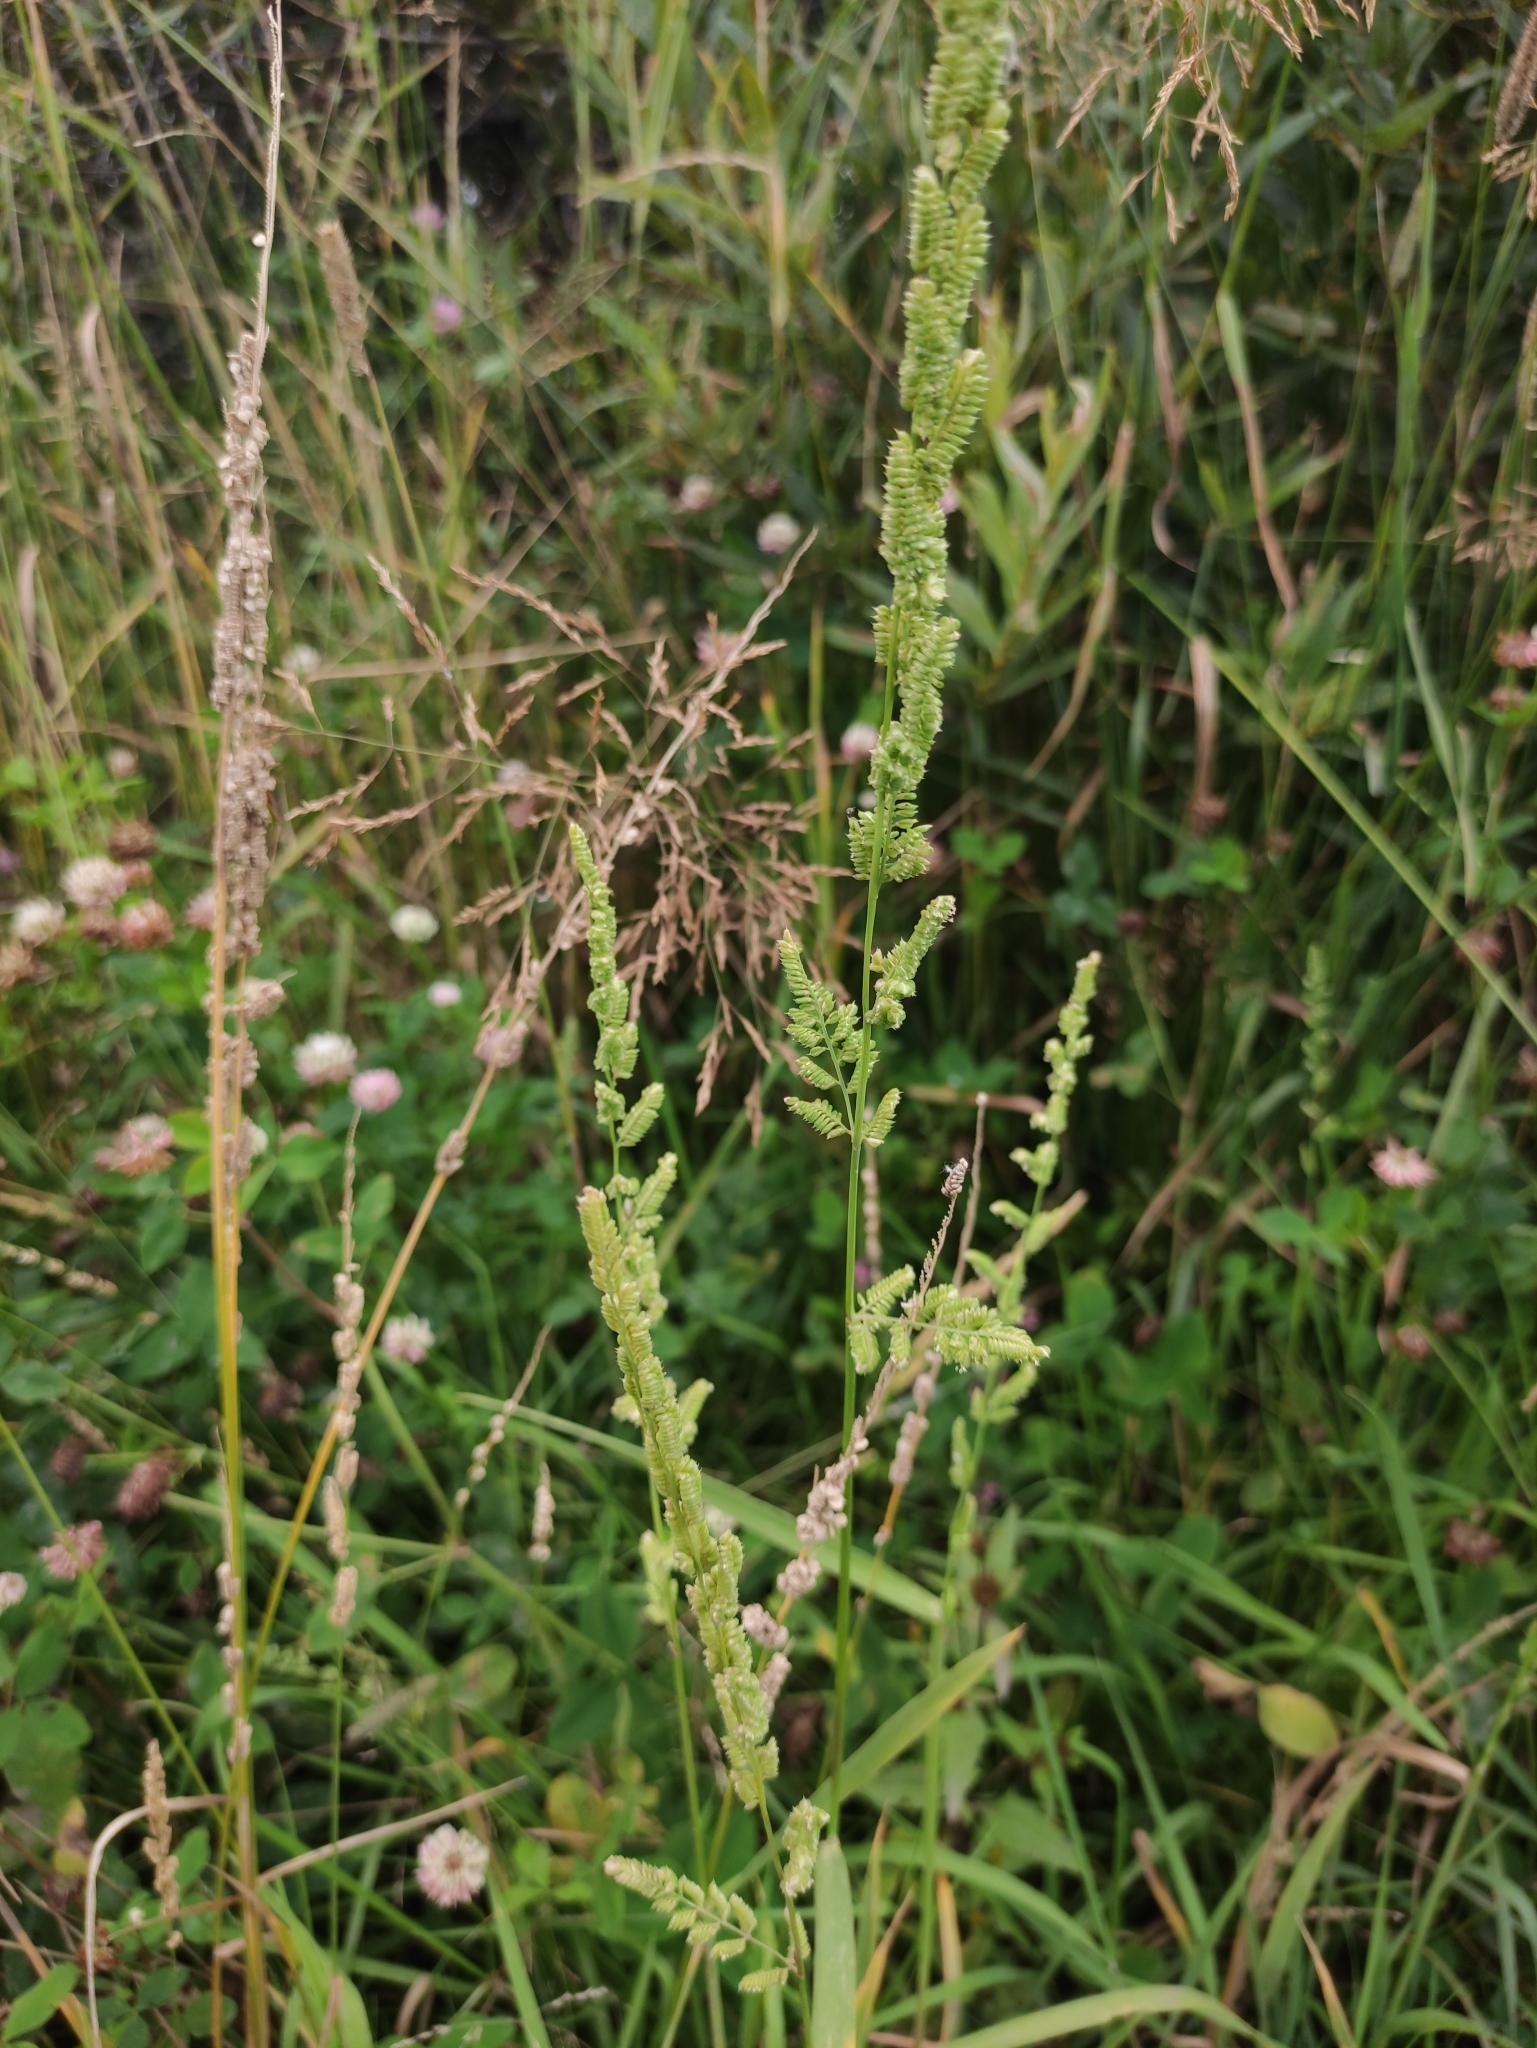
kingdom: Plantae
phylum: Tracheophyta
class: Liliopsida
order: Poales
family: Poaceae
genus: Beckmannia
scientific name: Beckmannia syzigachne
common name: American slough-grass
